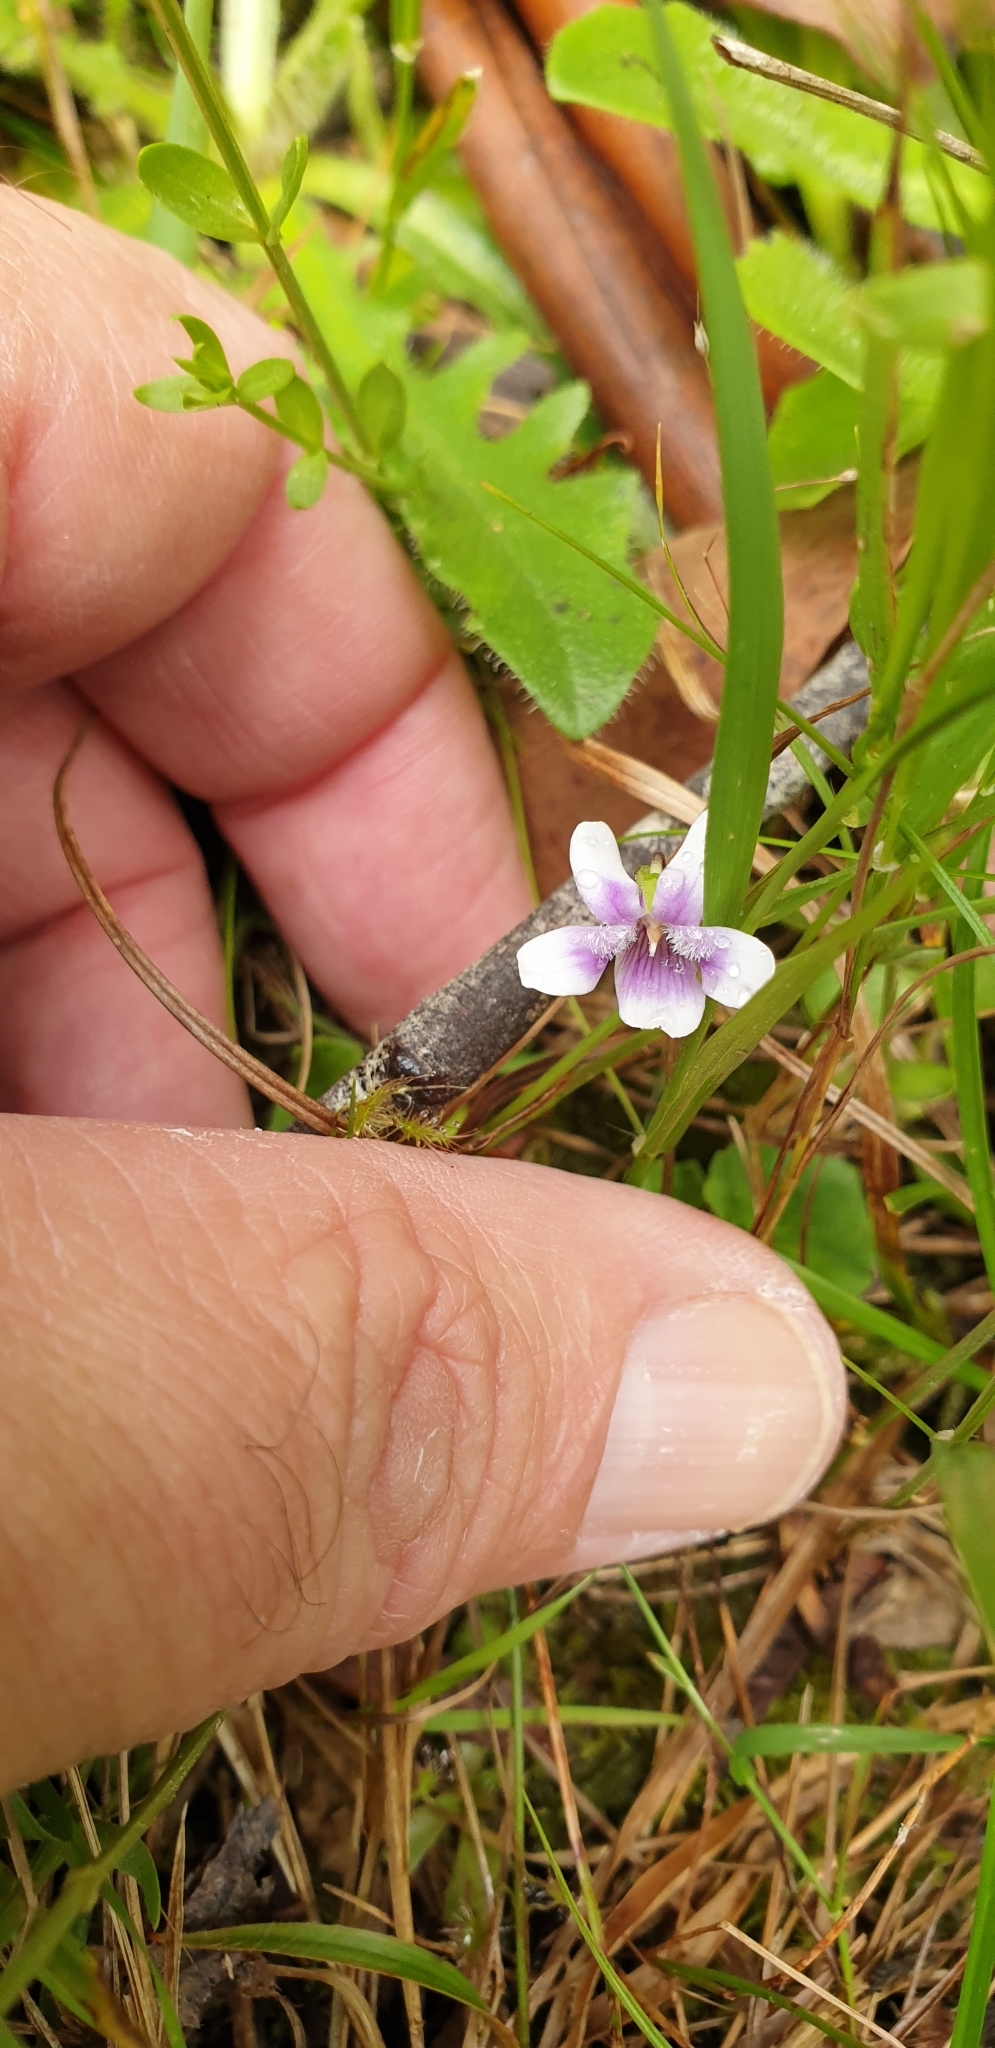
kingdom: Plantae
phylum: Tracheophyta
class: Magnoliopsida
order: Malpighiales
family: Violaceae
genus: Viola
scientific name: Viola hederacea
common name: Australian violet
